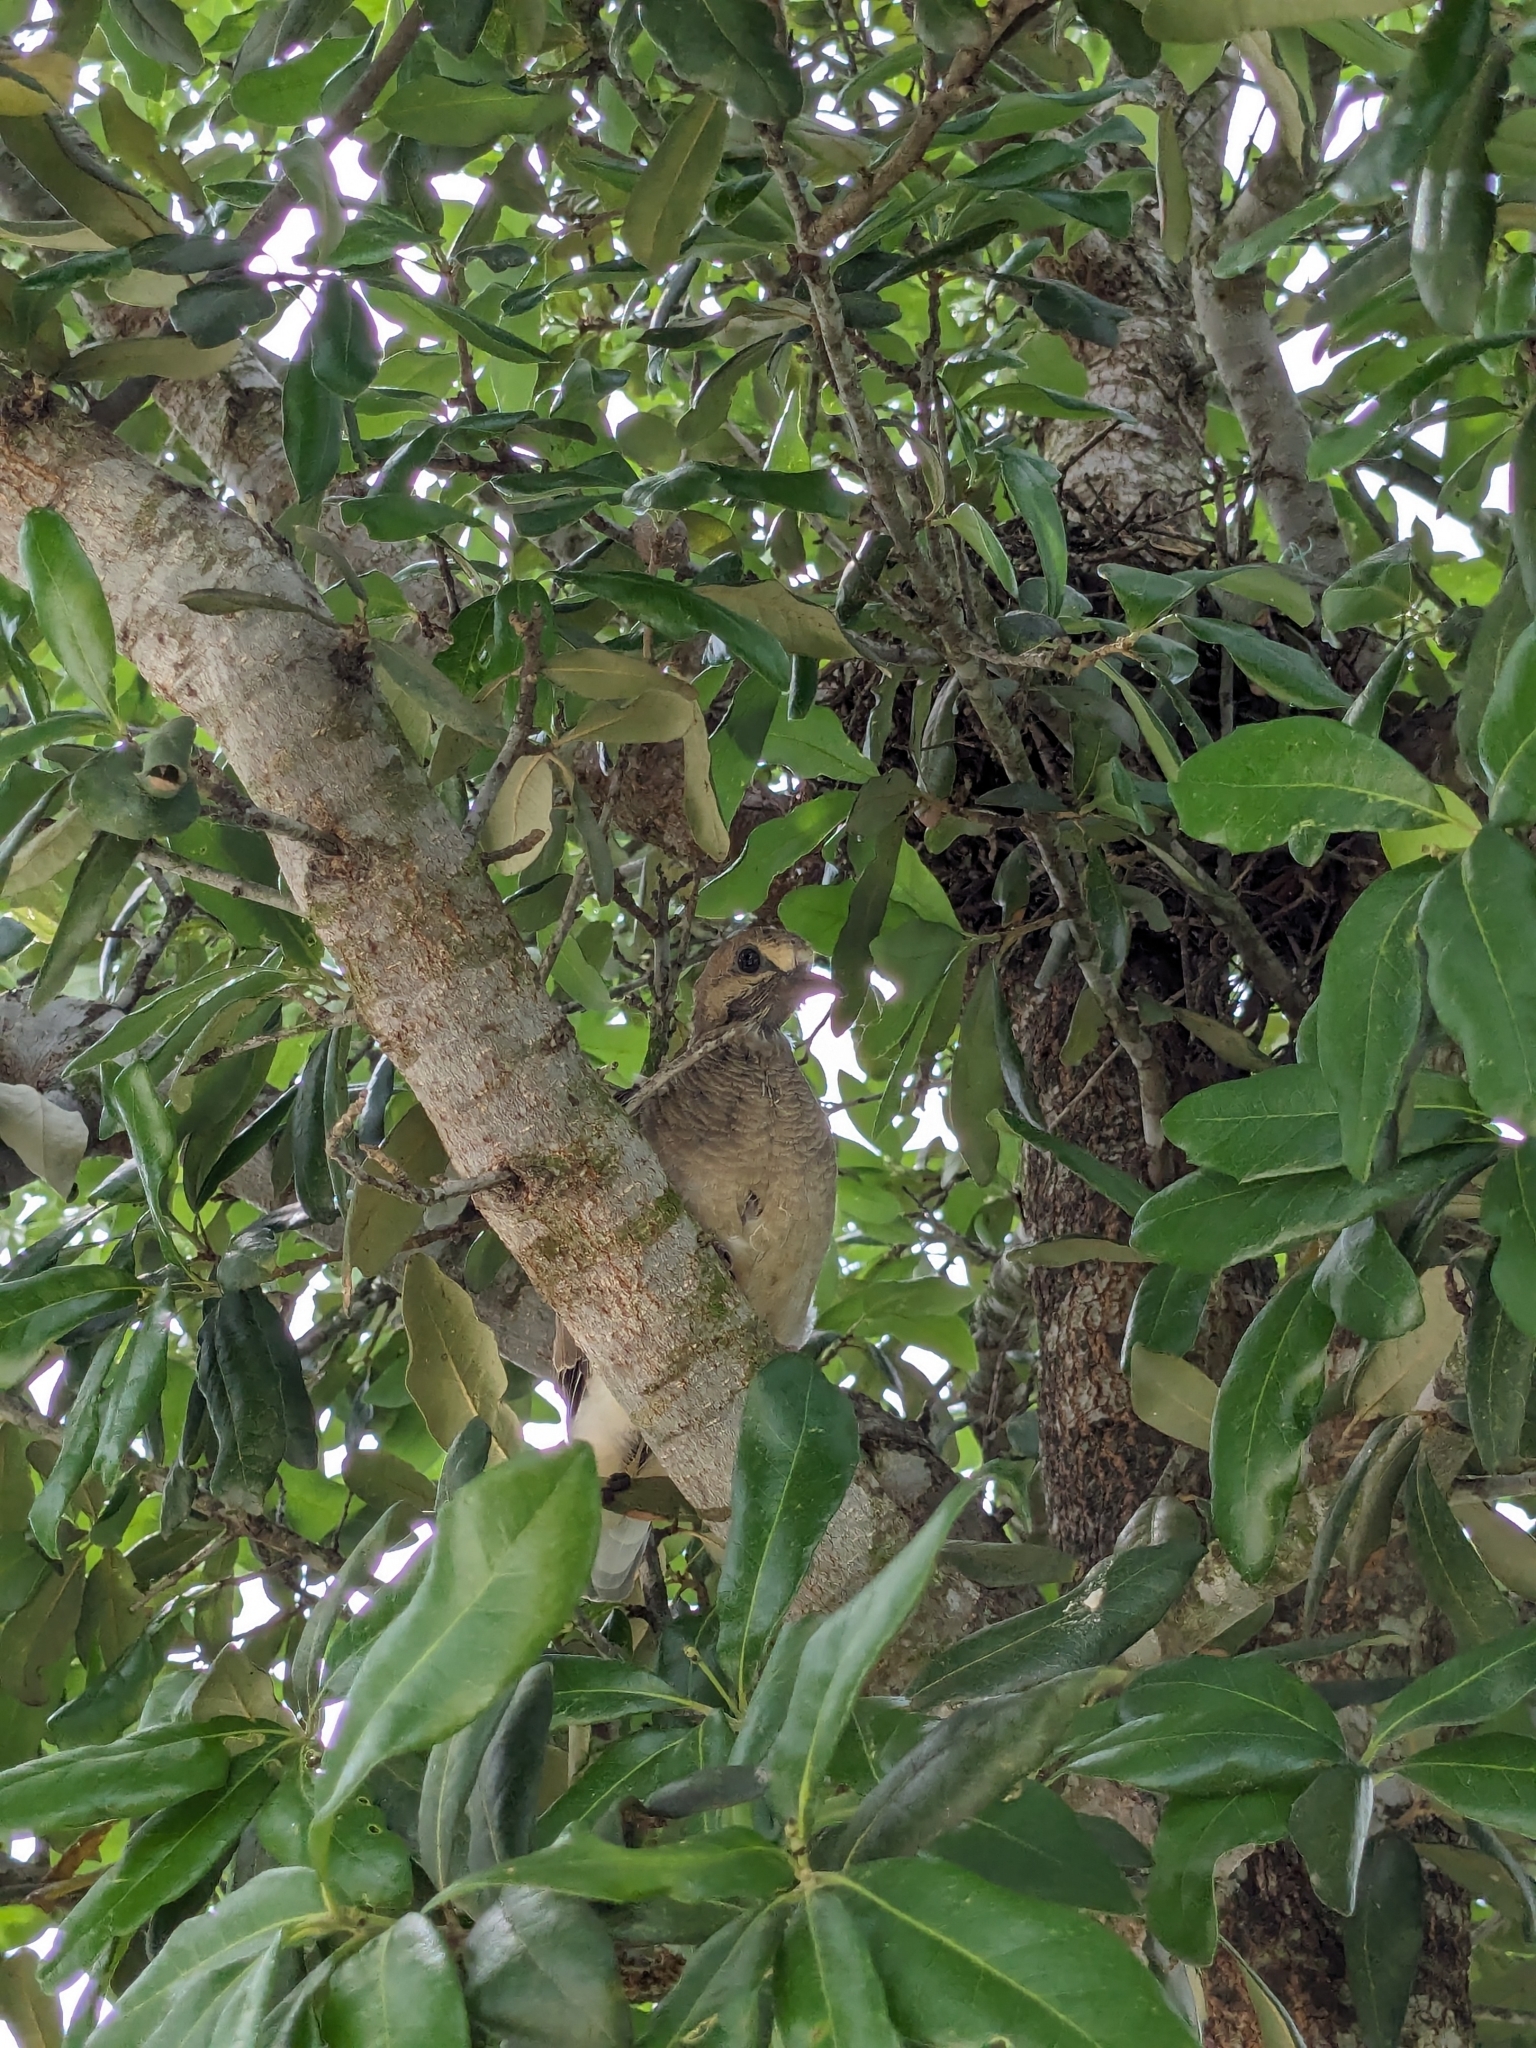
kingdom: Animalia
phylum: Chordata
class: Aves
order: Columbiformes
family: Columbidae
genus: Zenaida
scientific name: Zenaida macroura
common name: Mourning dove
